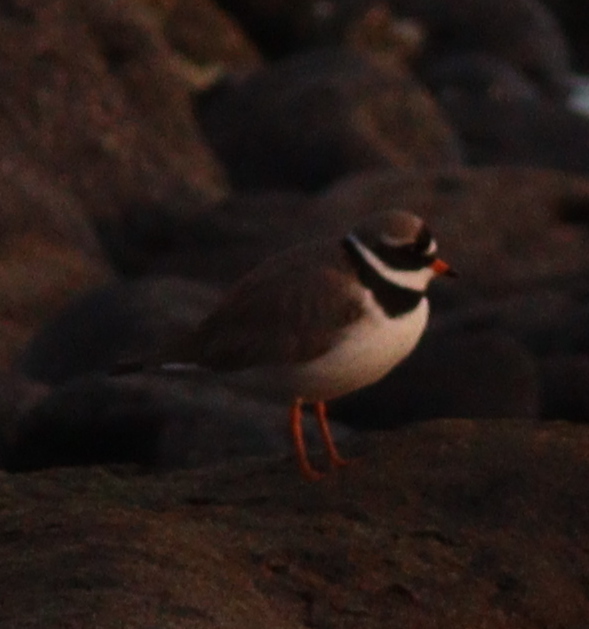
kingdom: Animalia
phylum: Chordata
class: Aves
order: Charadriiformes
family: Charadriidae
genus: Charadrius
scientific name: Charadrius hiaticula
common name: Common ringed plover
